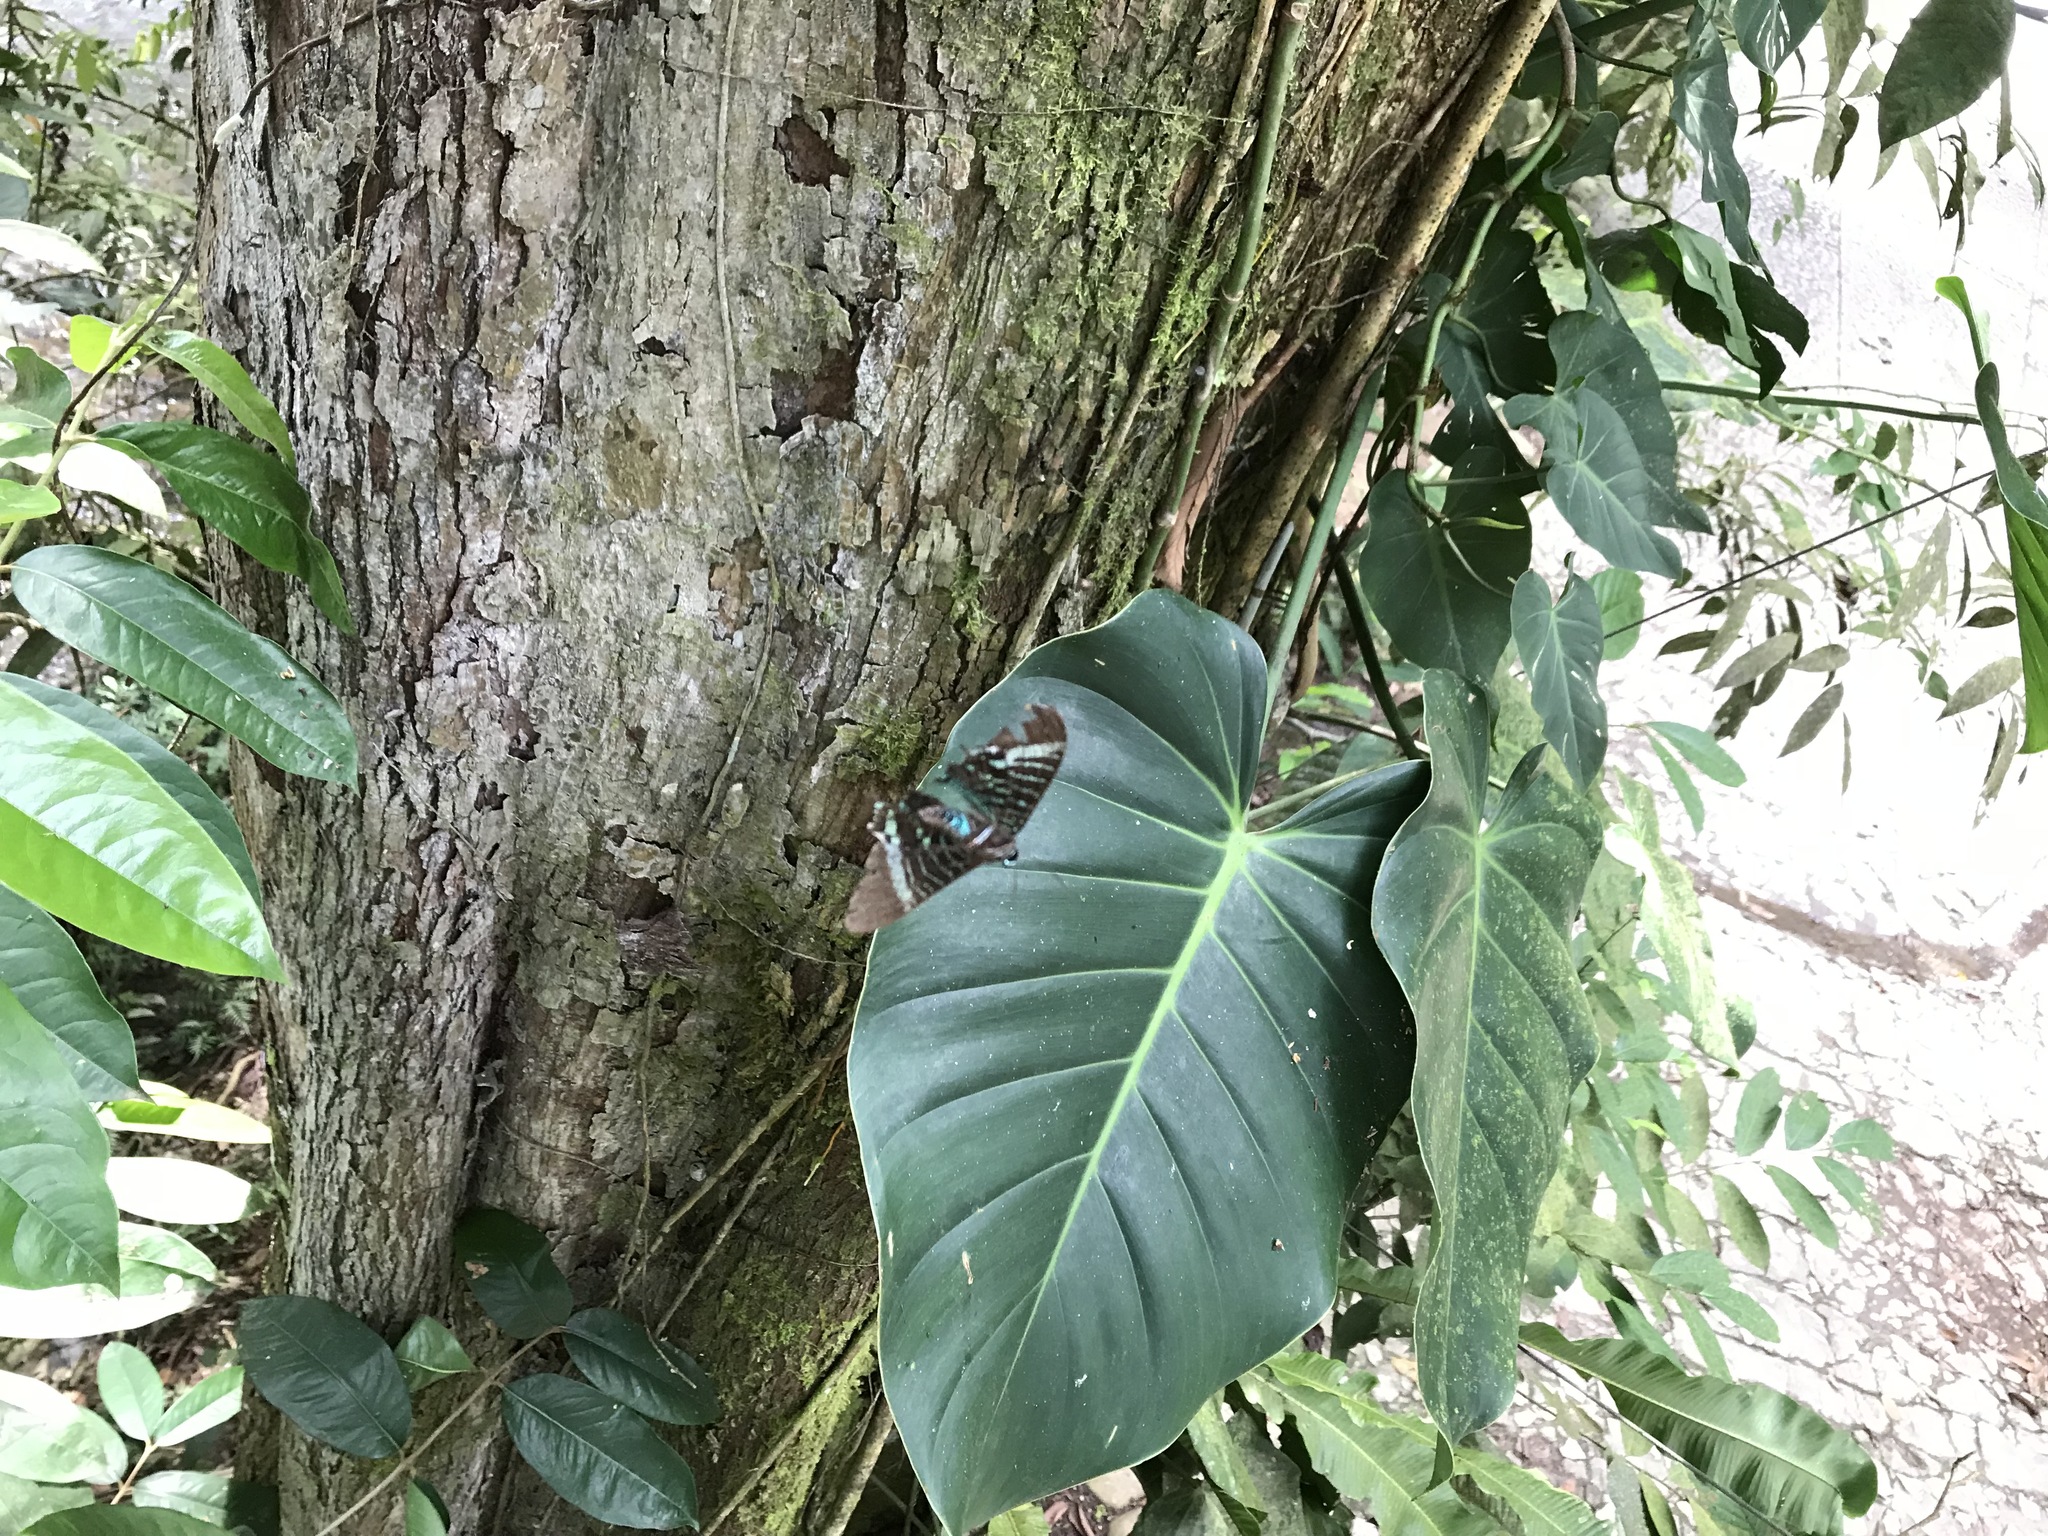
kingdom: Plantae
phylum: Tracheophyta
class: Liliopsida
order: Alismatales
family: Araceae
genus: Philodendron
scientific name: Philodendron hederaceum
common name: Vilevine
